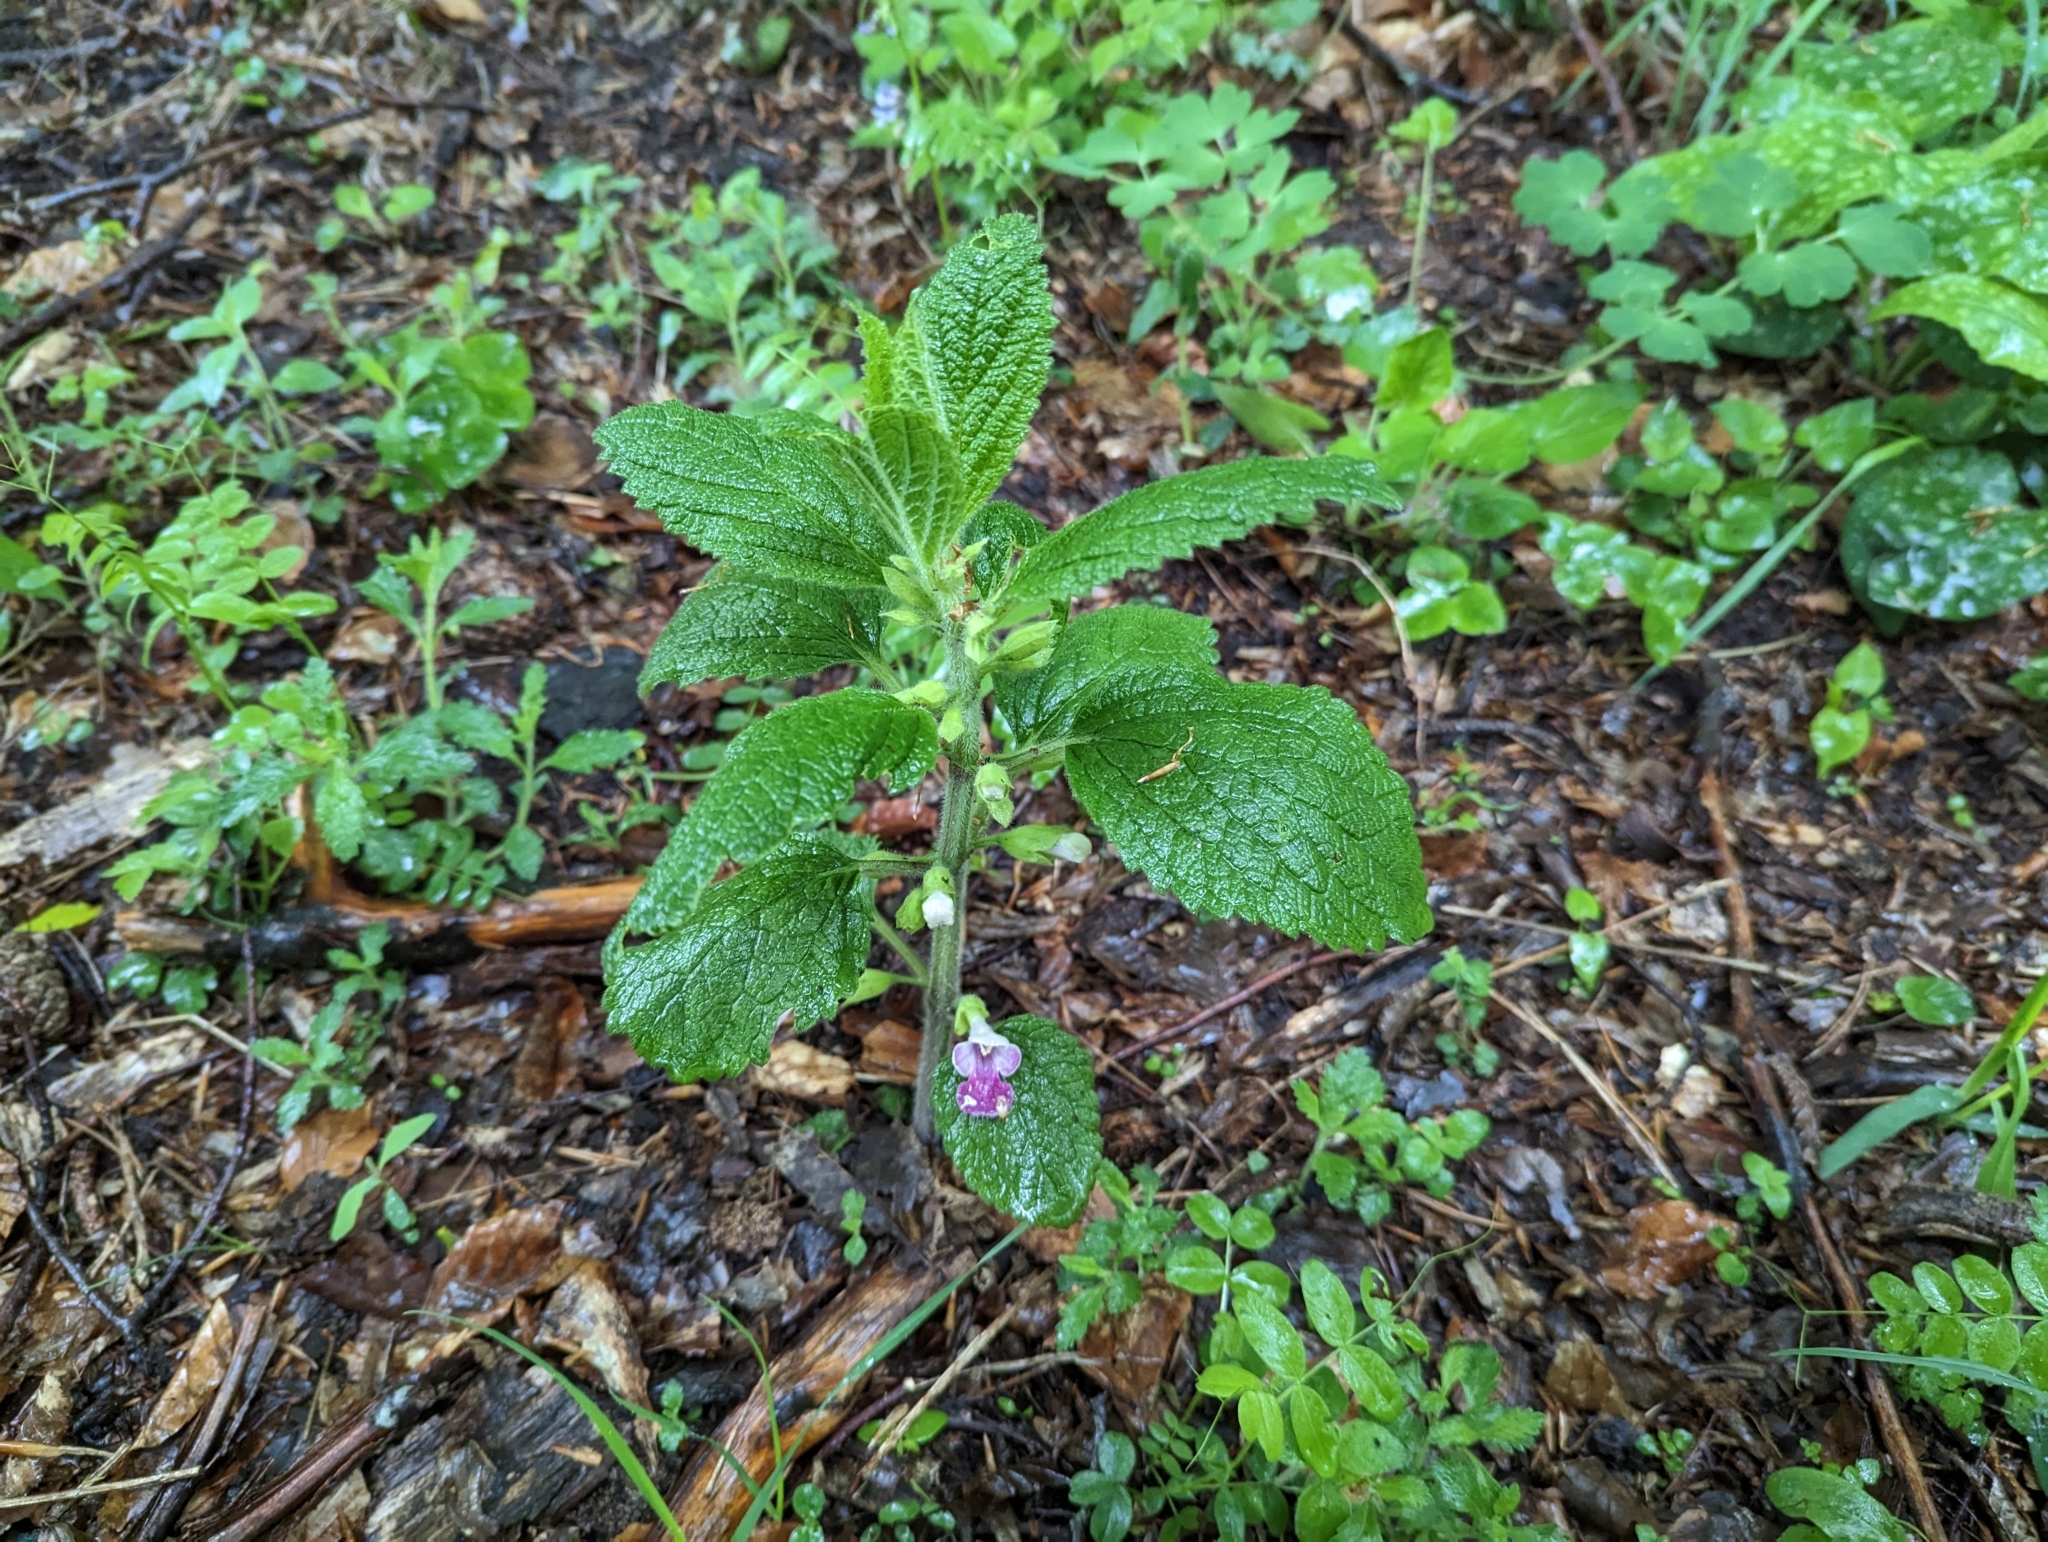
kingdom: Plantae
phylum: Tracheophyta
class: Magnoliopsida
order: Lamiales
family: Lamiaceae
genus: Melittis
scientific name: Melittis melissophyllum
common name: Bastard balm
